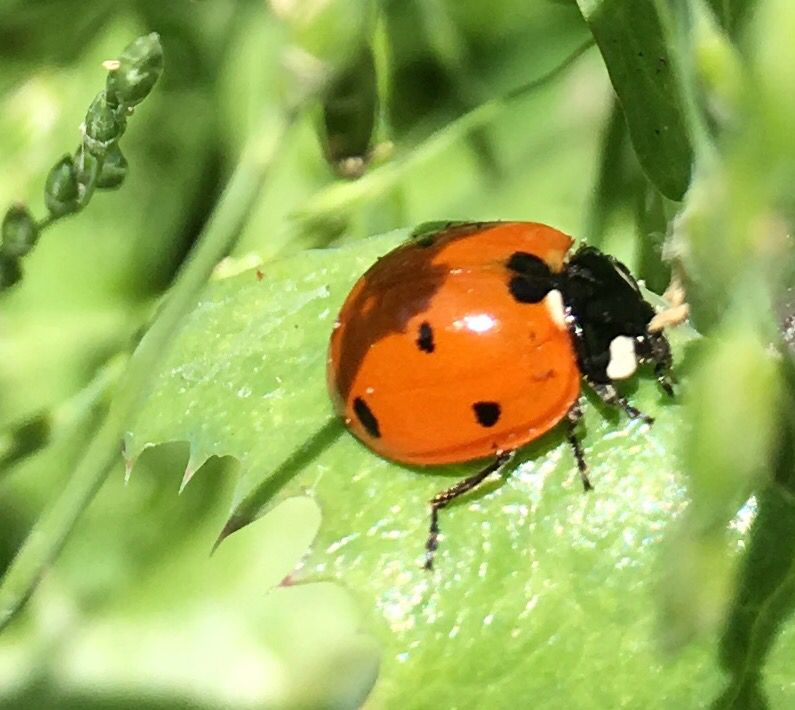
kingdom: Animalia
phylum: Arthropoda
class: Insecta
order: Coleoptera
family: Coccinellidae
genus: Coccinella
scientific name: Coccinella septempunctata
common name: Sevenspotted lady beetle
